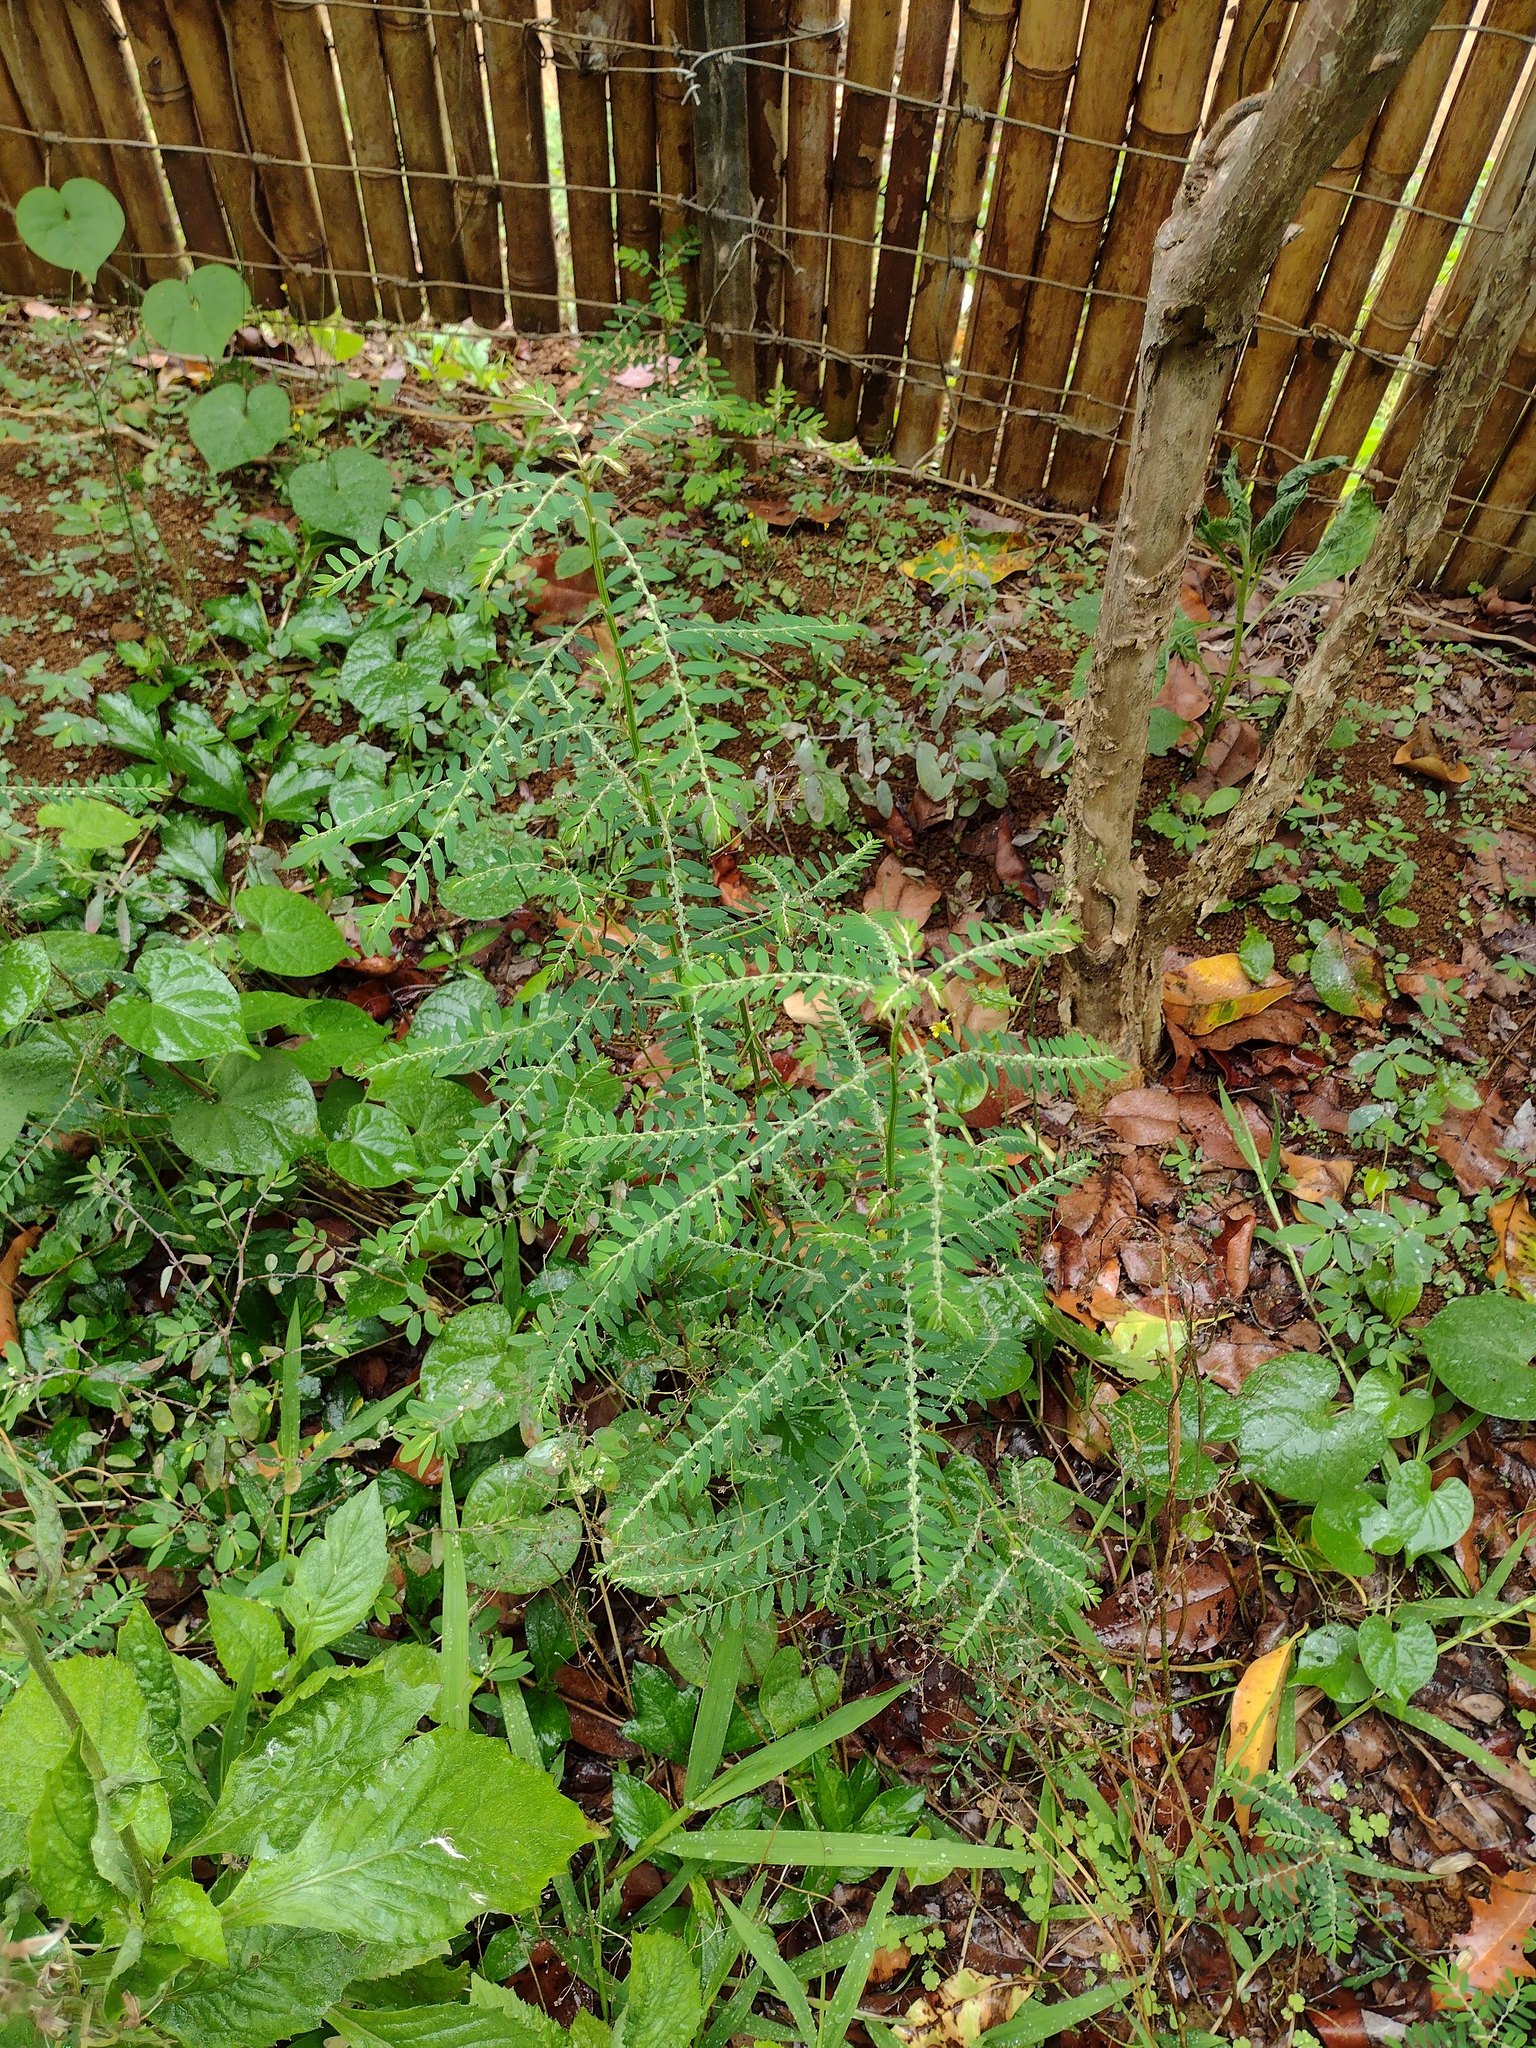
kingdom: Plantae
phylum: Tracheophyta
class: Magnoliopsida
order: Malpighiales
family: Phyllanthaceae
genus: Phyllanthus
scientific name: Phyllanthus debilis
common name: Niruri
